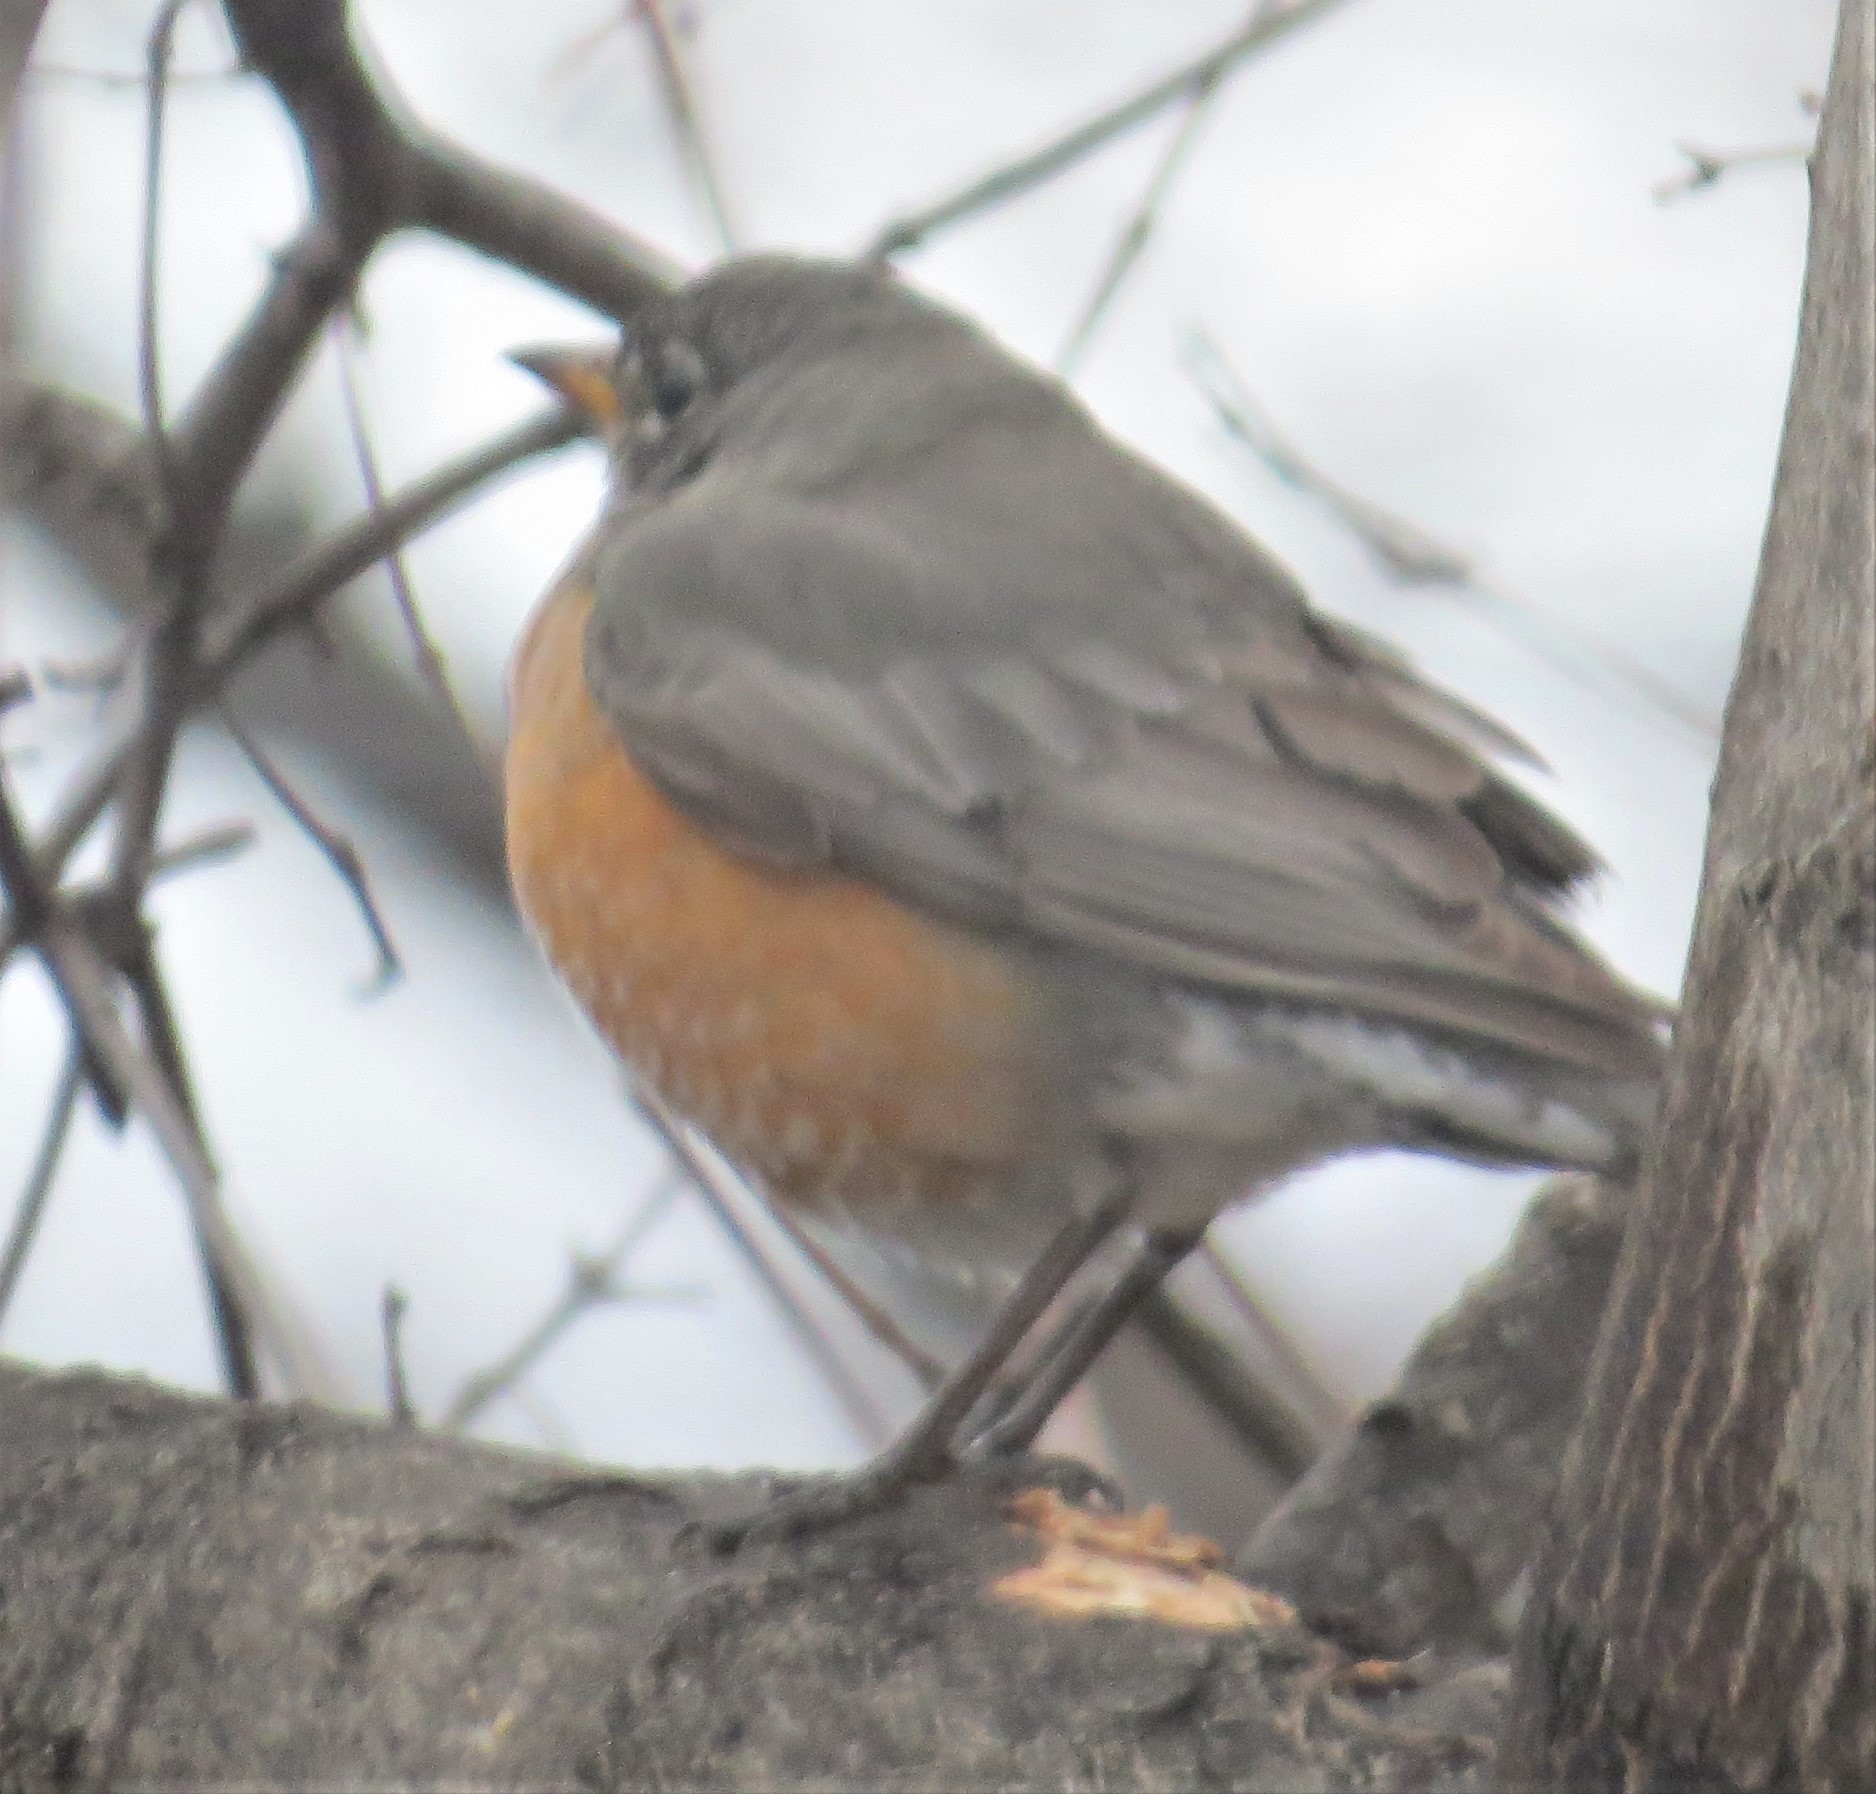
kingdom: Animalia
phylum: Chordata
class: Aves
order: Passeriformes
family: Turdidae
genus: Turdus
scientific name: Turdus migratorius
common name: American robin
